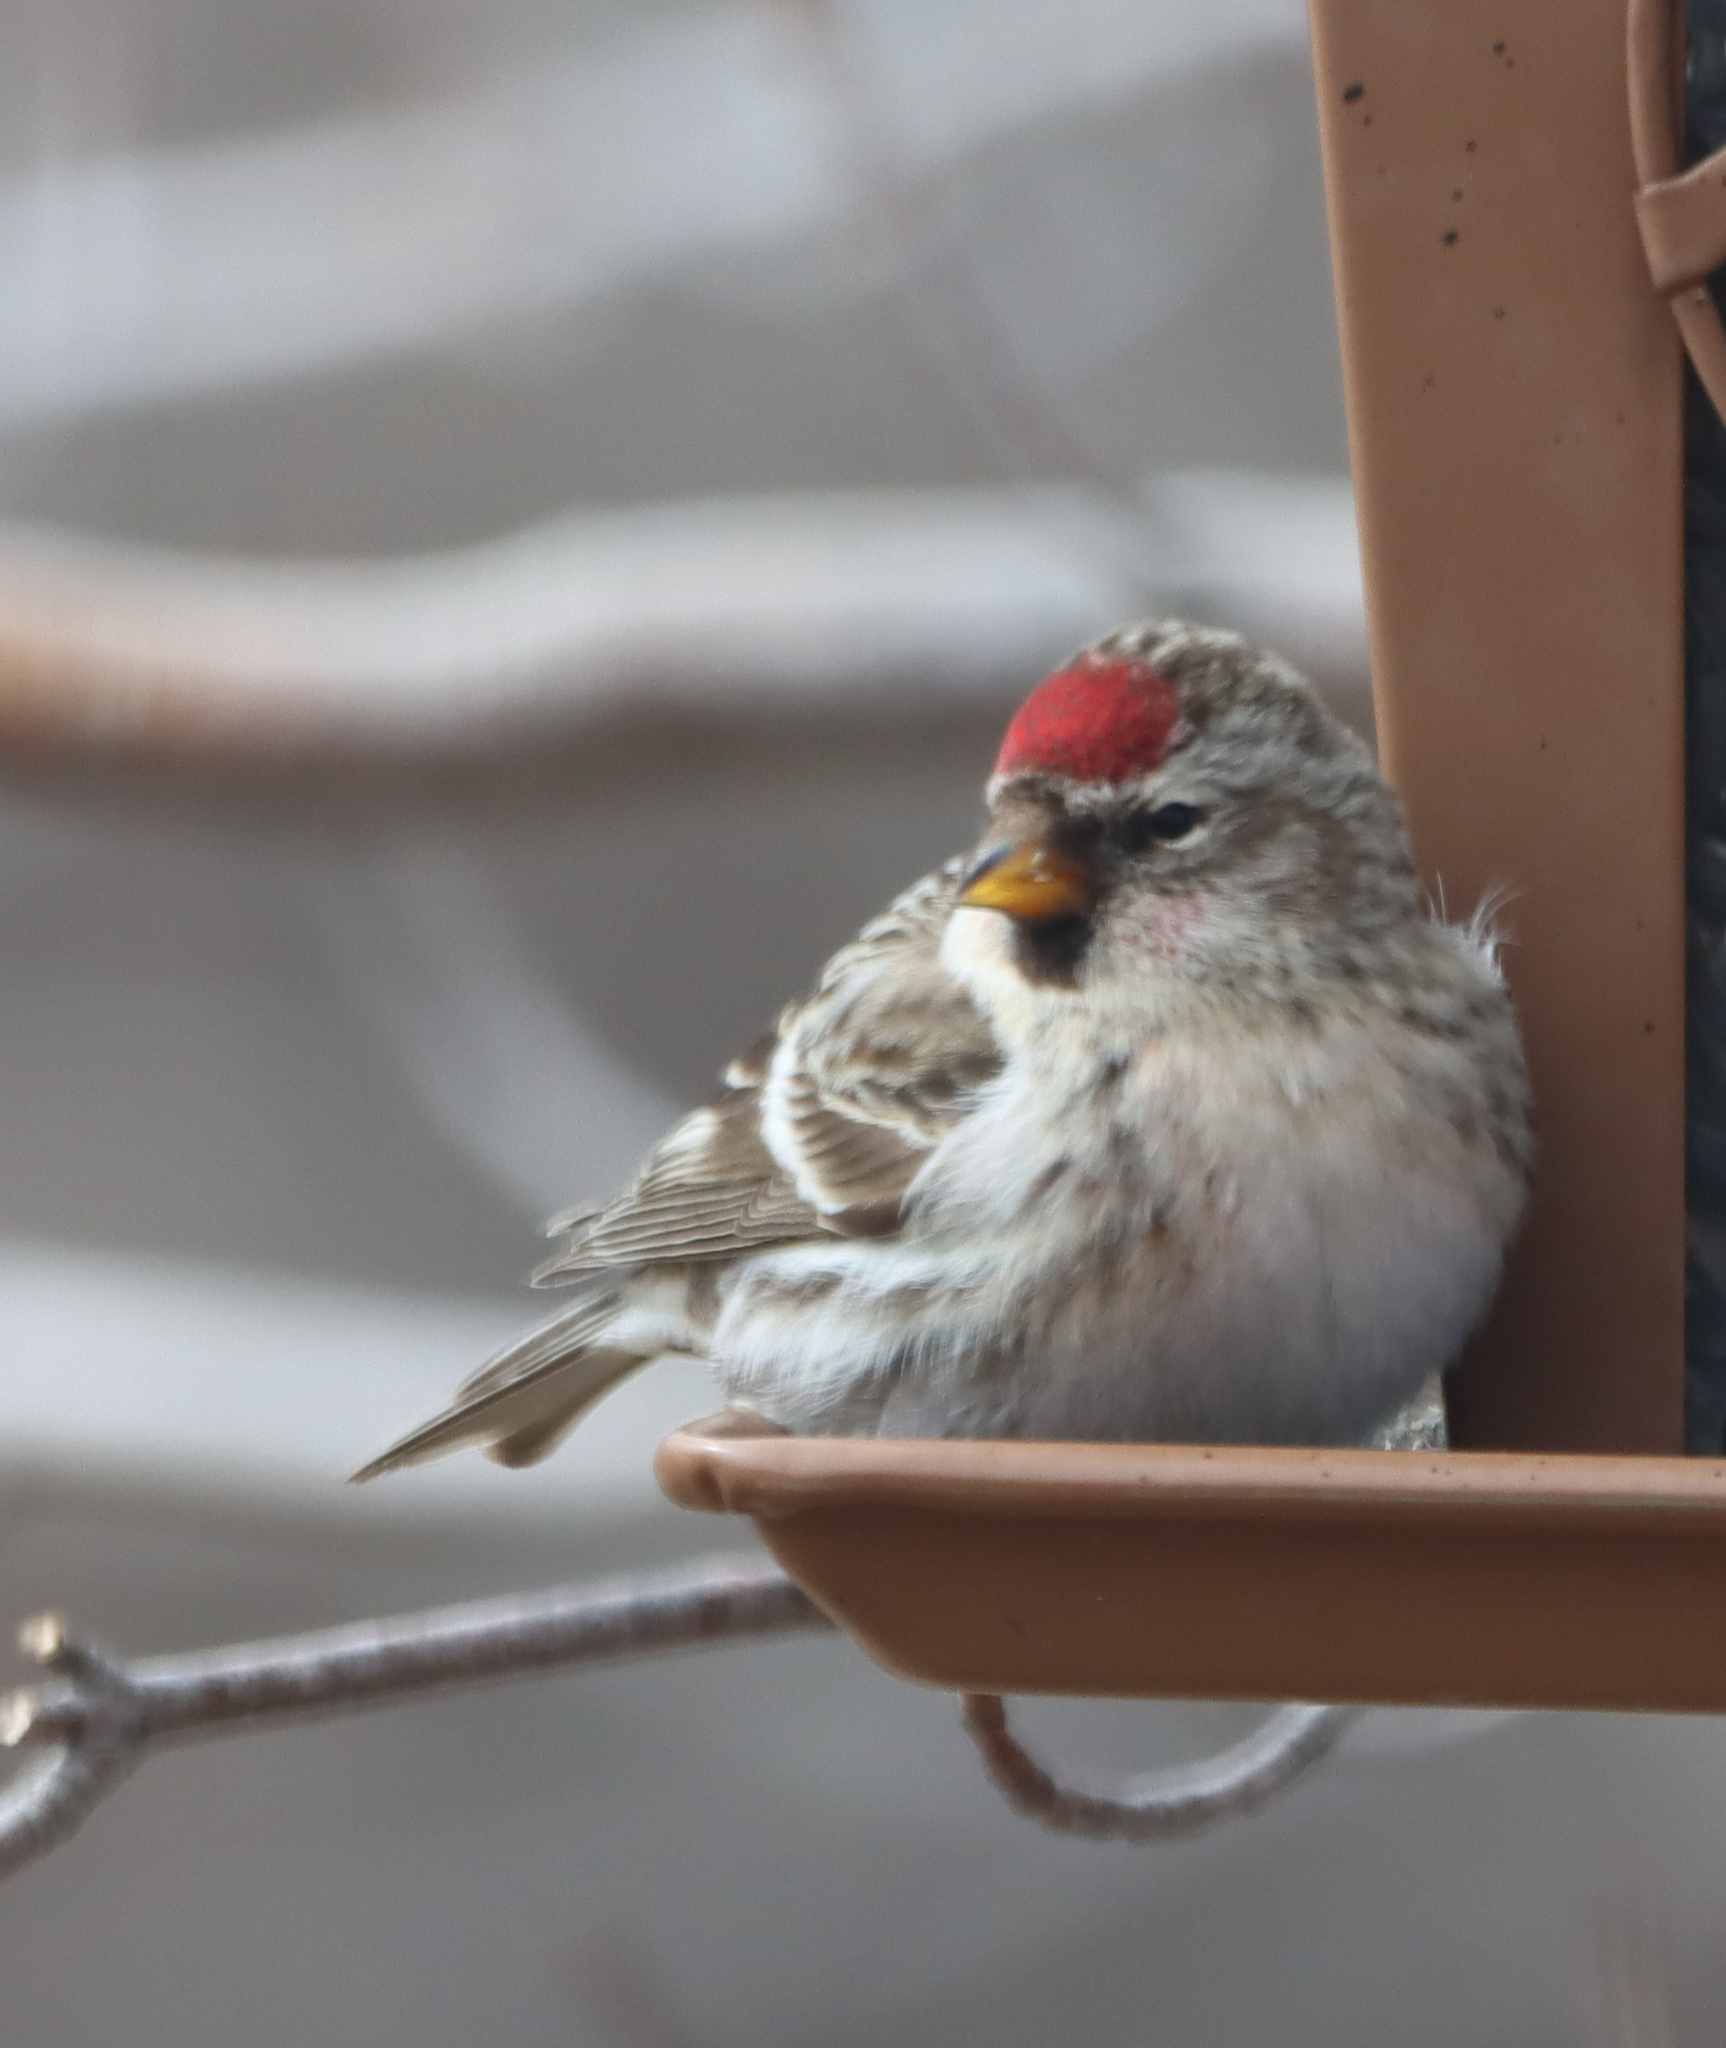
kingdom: Animalia
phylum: Chordata
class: Aves
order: Passeriformes
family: Fringillidae
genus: Acanthis
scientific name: Acanthis flammea
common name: Common redpoll
